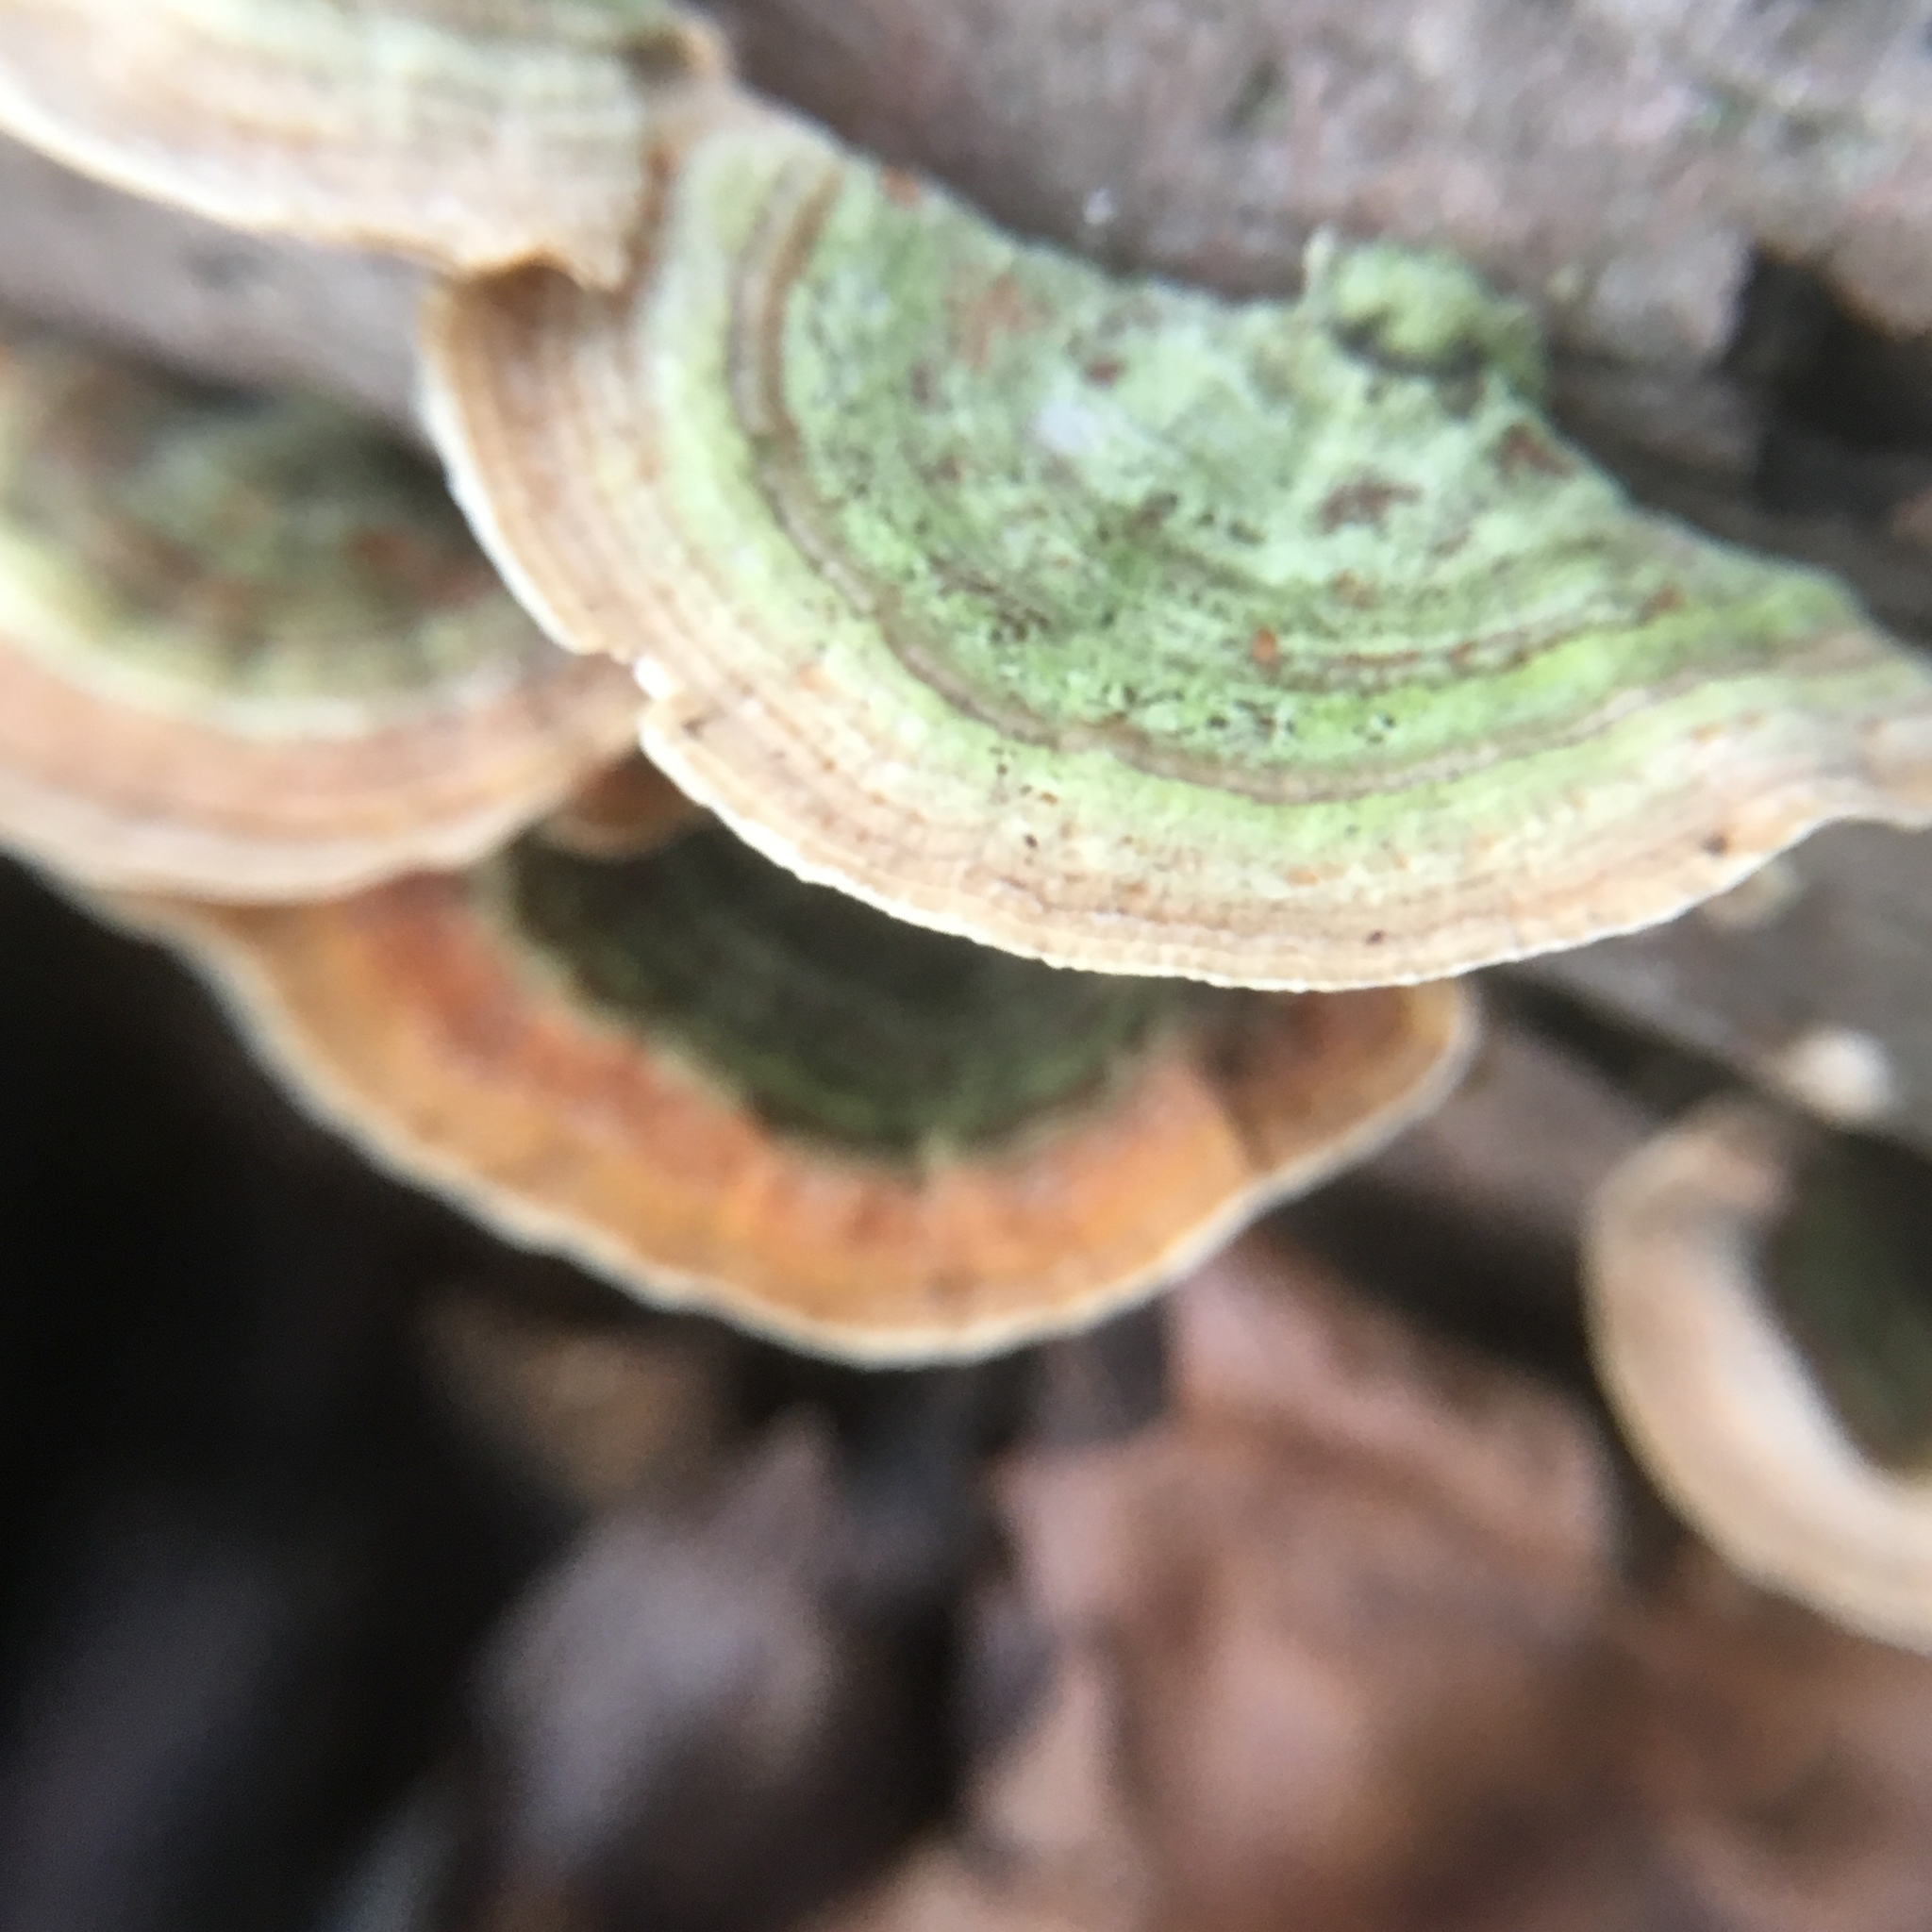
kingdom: Fungi
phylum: Basidiomycota
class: Agaricomycetes
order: Polyporales
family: Polyporaceae
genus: Trametes
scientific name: Trametes versicolor
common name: Turkeytail
